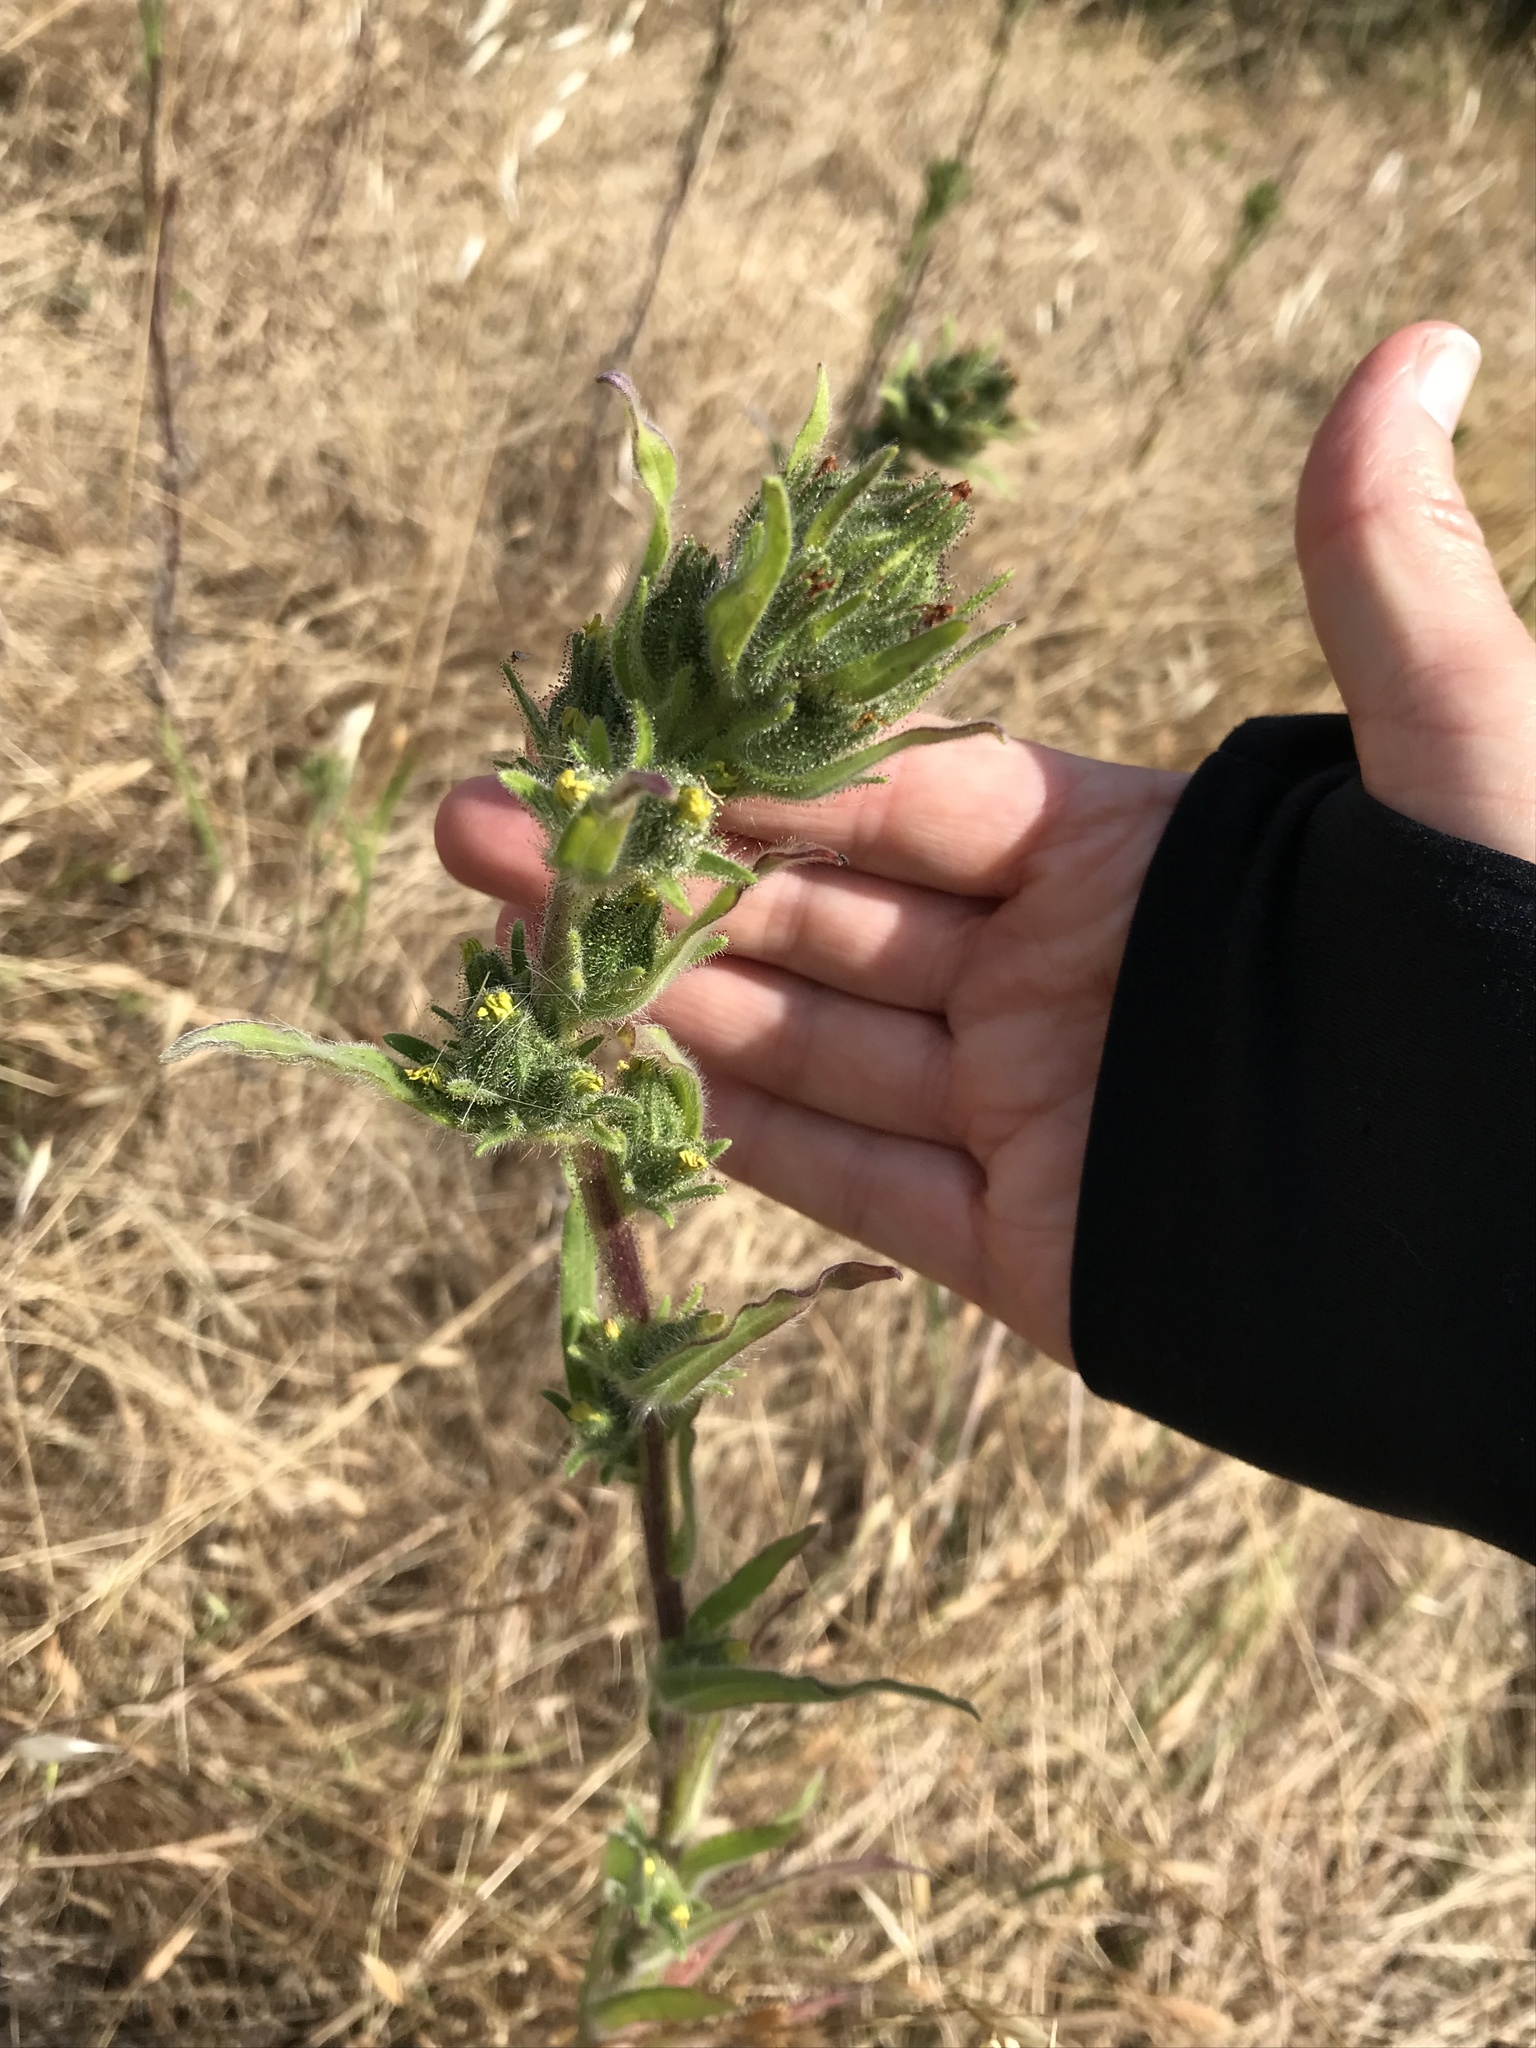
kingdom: Plantae
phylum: Tracheophyta
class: Magnoliopsida
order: Asterales
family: Asteraceae
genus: Madia
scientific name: Madia sativa
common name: Coast tarweed
